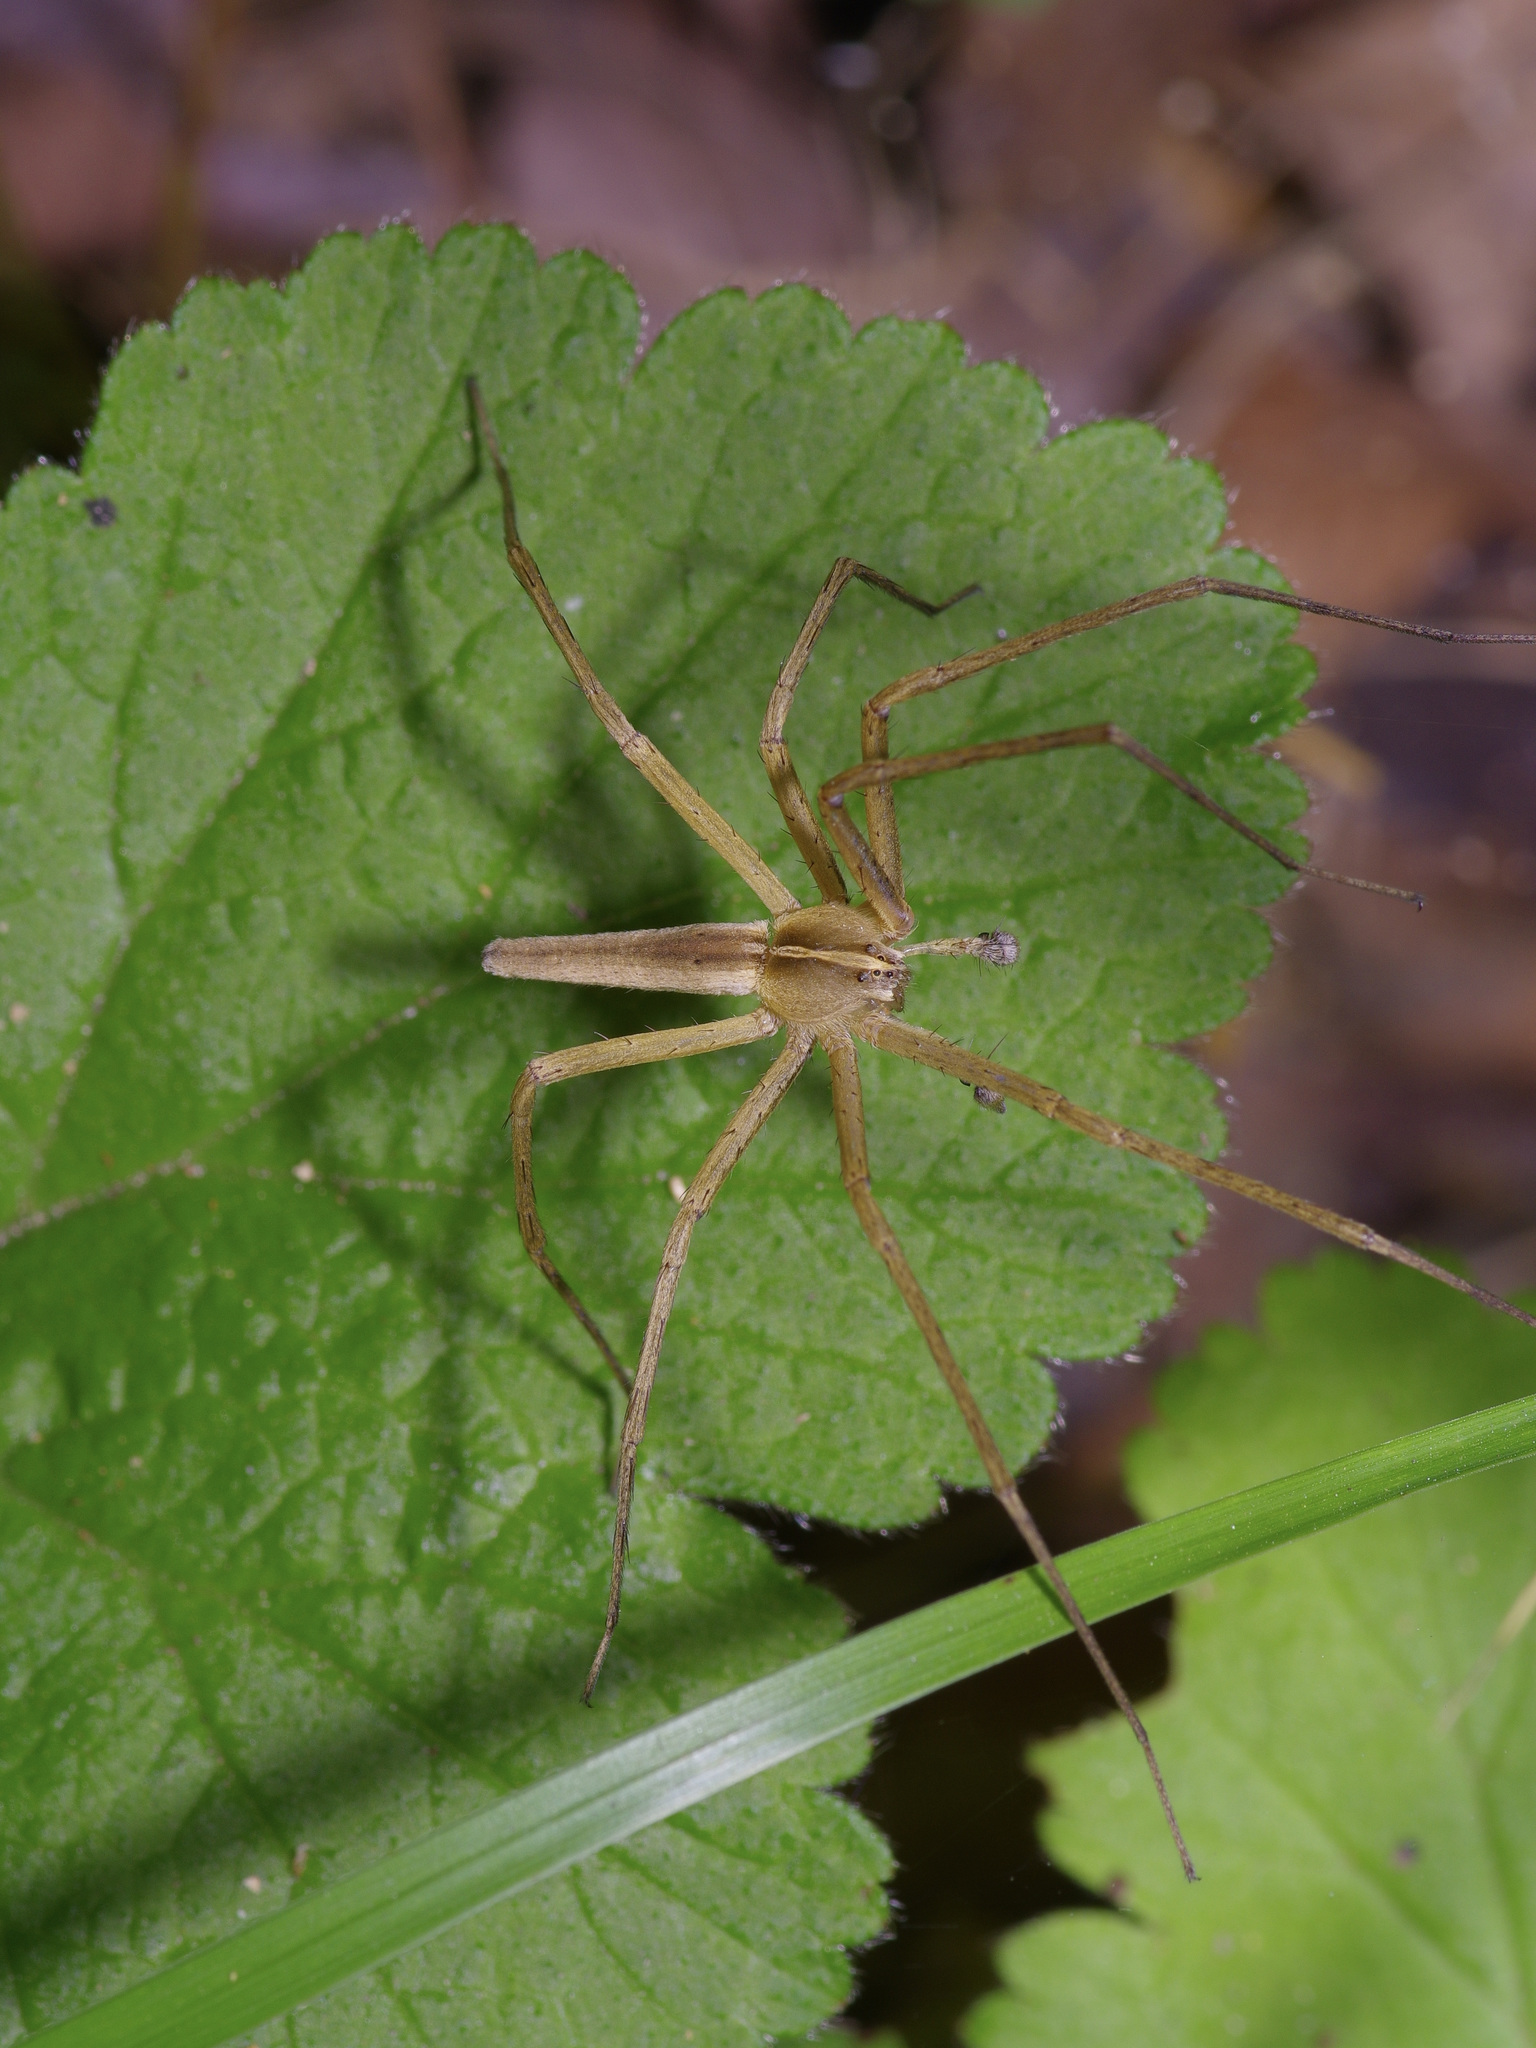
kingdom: Animalia
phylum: Arthropoda
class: Arachnida
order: Araneae
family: Pisauridae
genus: Pisaurina
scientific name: Pisaurina dubia
